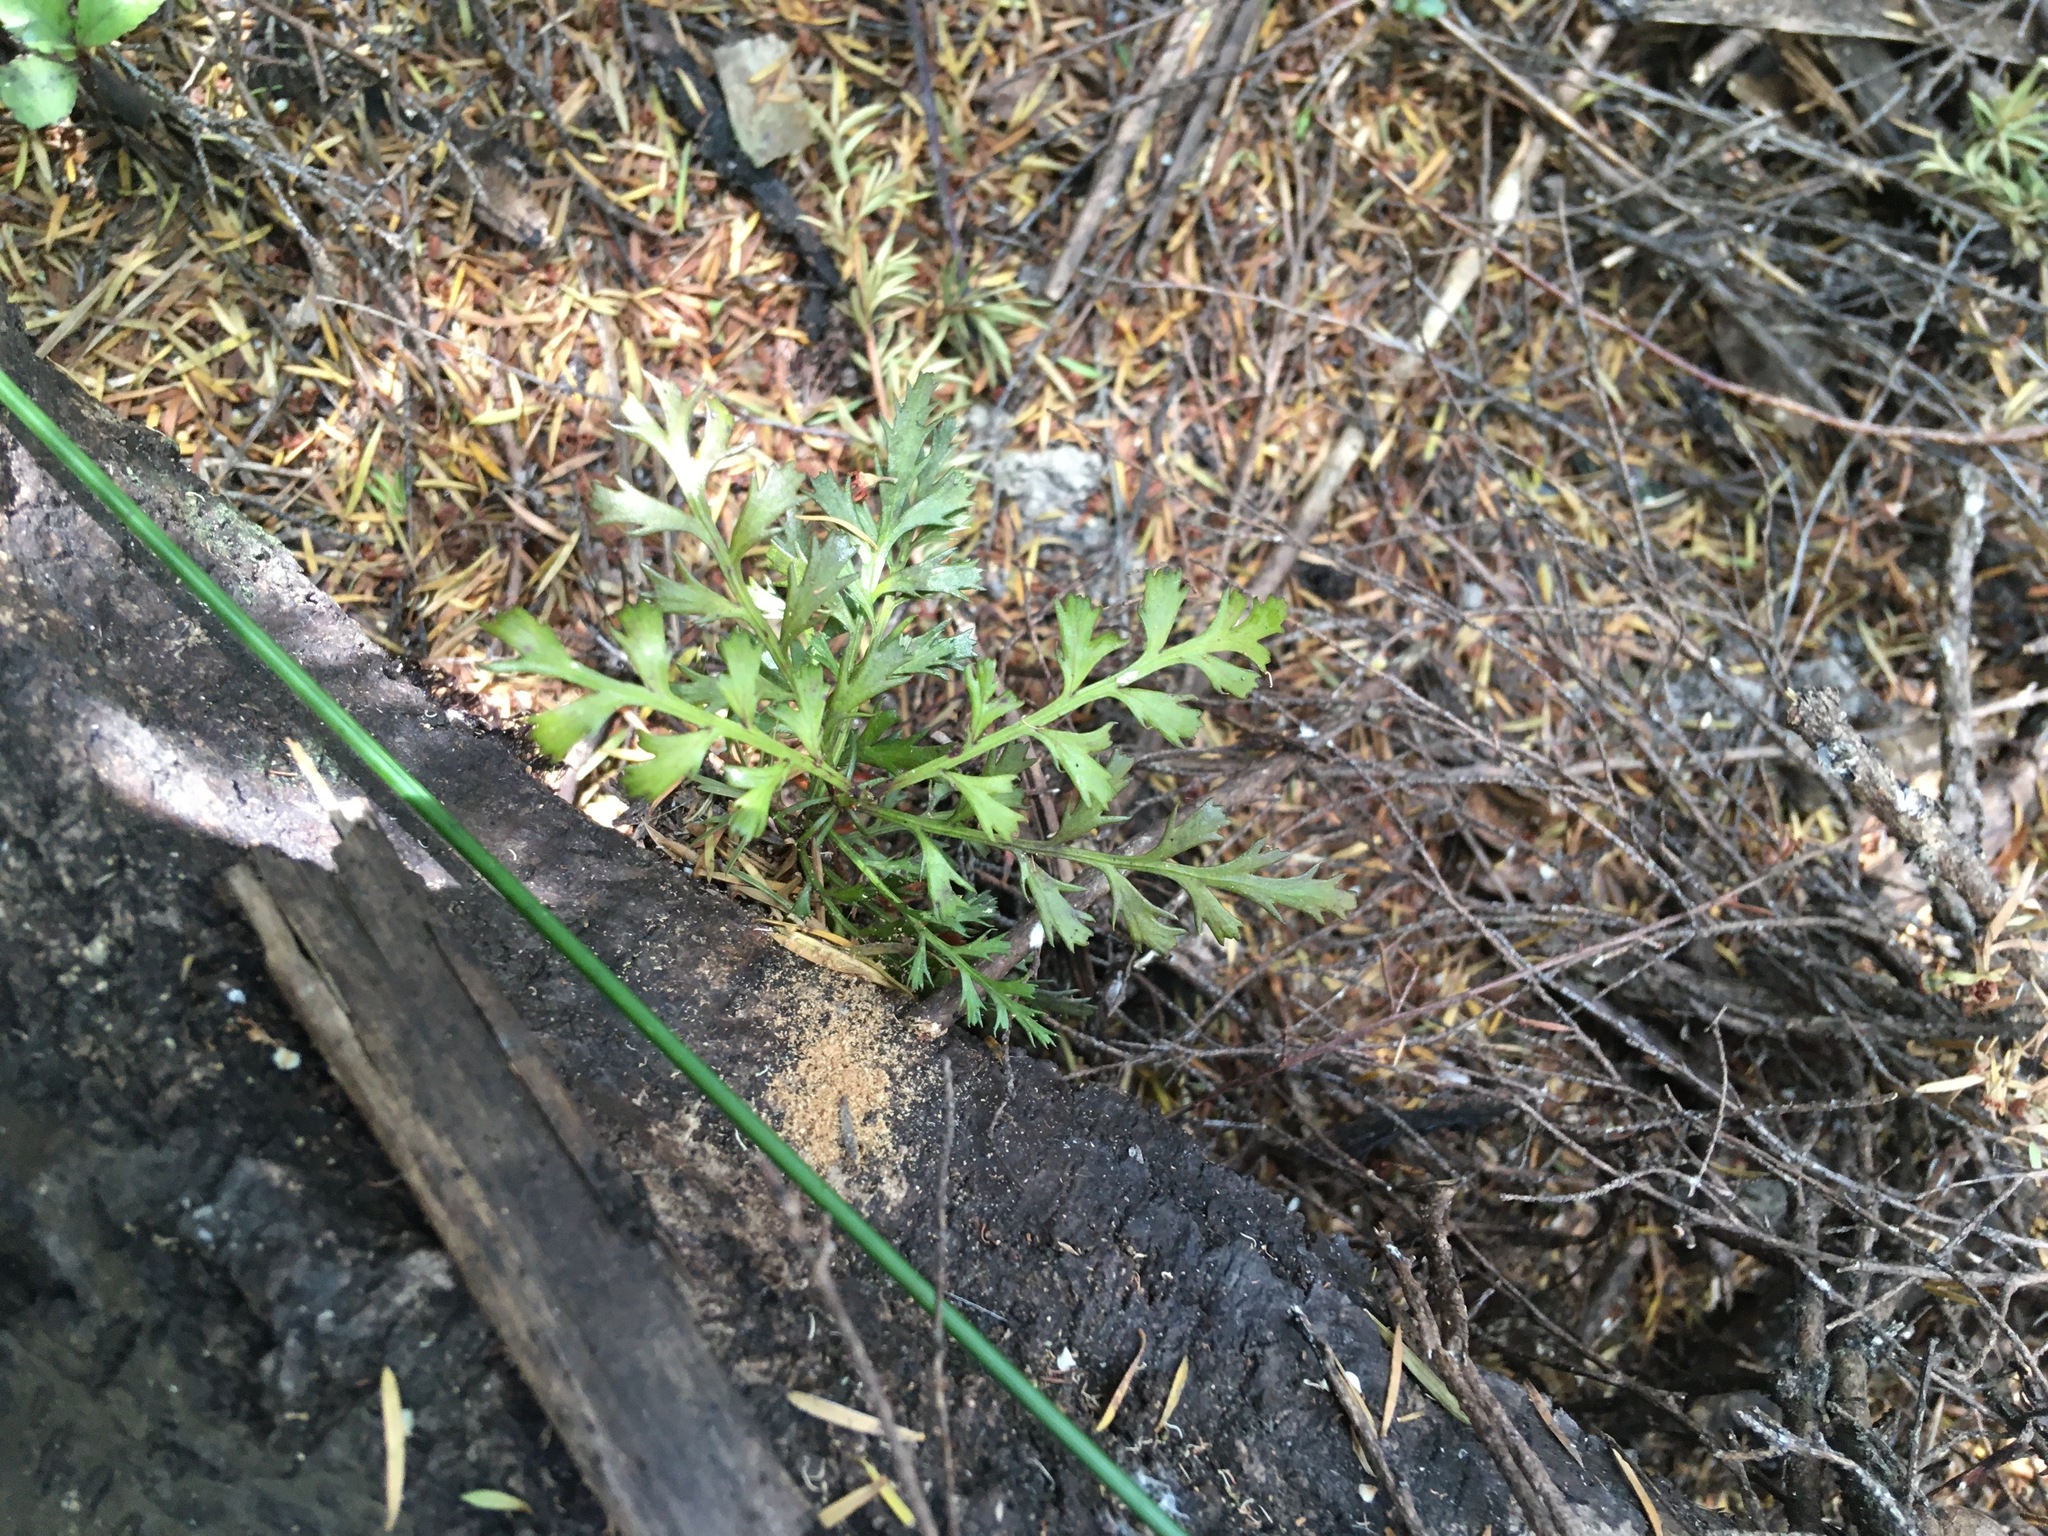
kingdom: Plantae
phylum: Tracheophyta
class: Pinopsida
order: Pinales
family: Phyllocladaceae
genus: Phyllocladus
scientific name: Phyllocladus trichomanoides
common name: Celery pine
